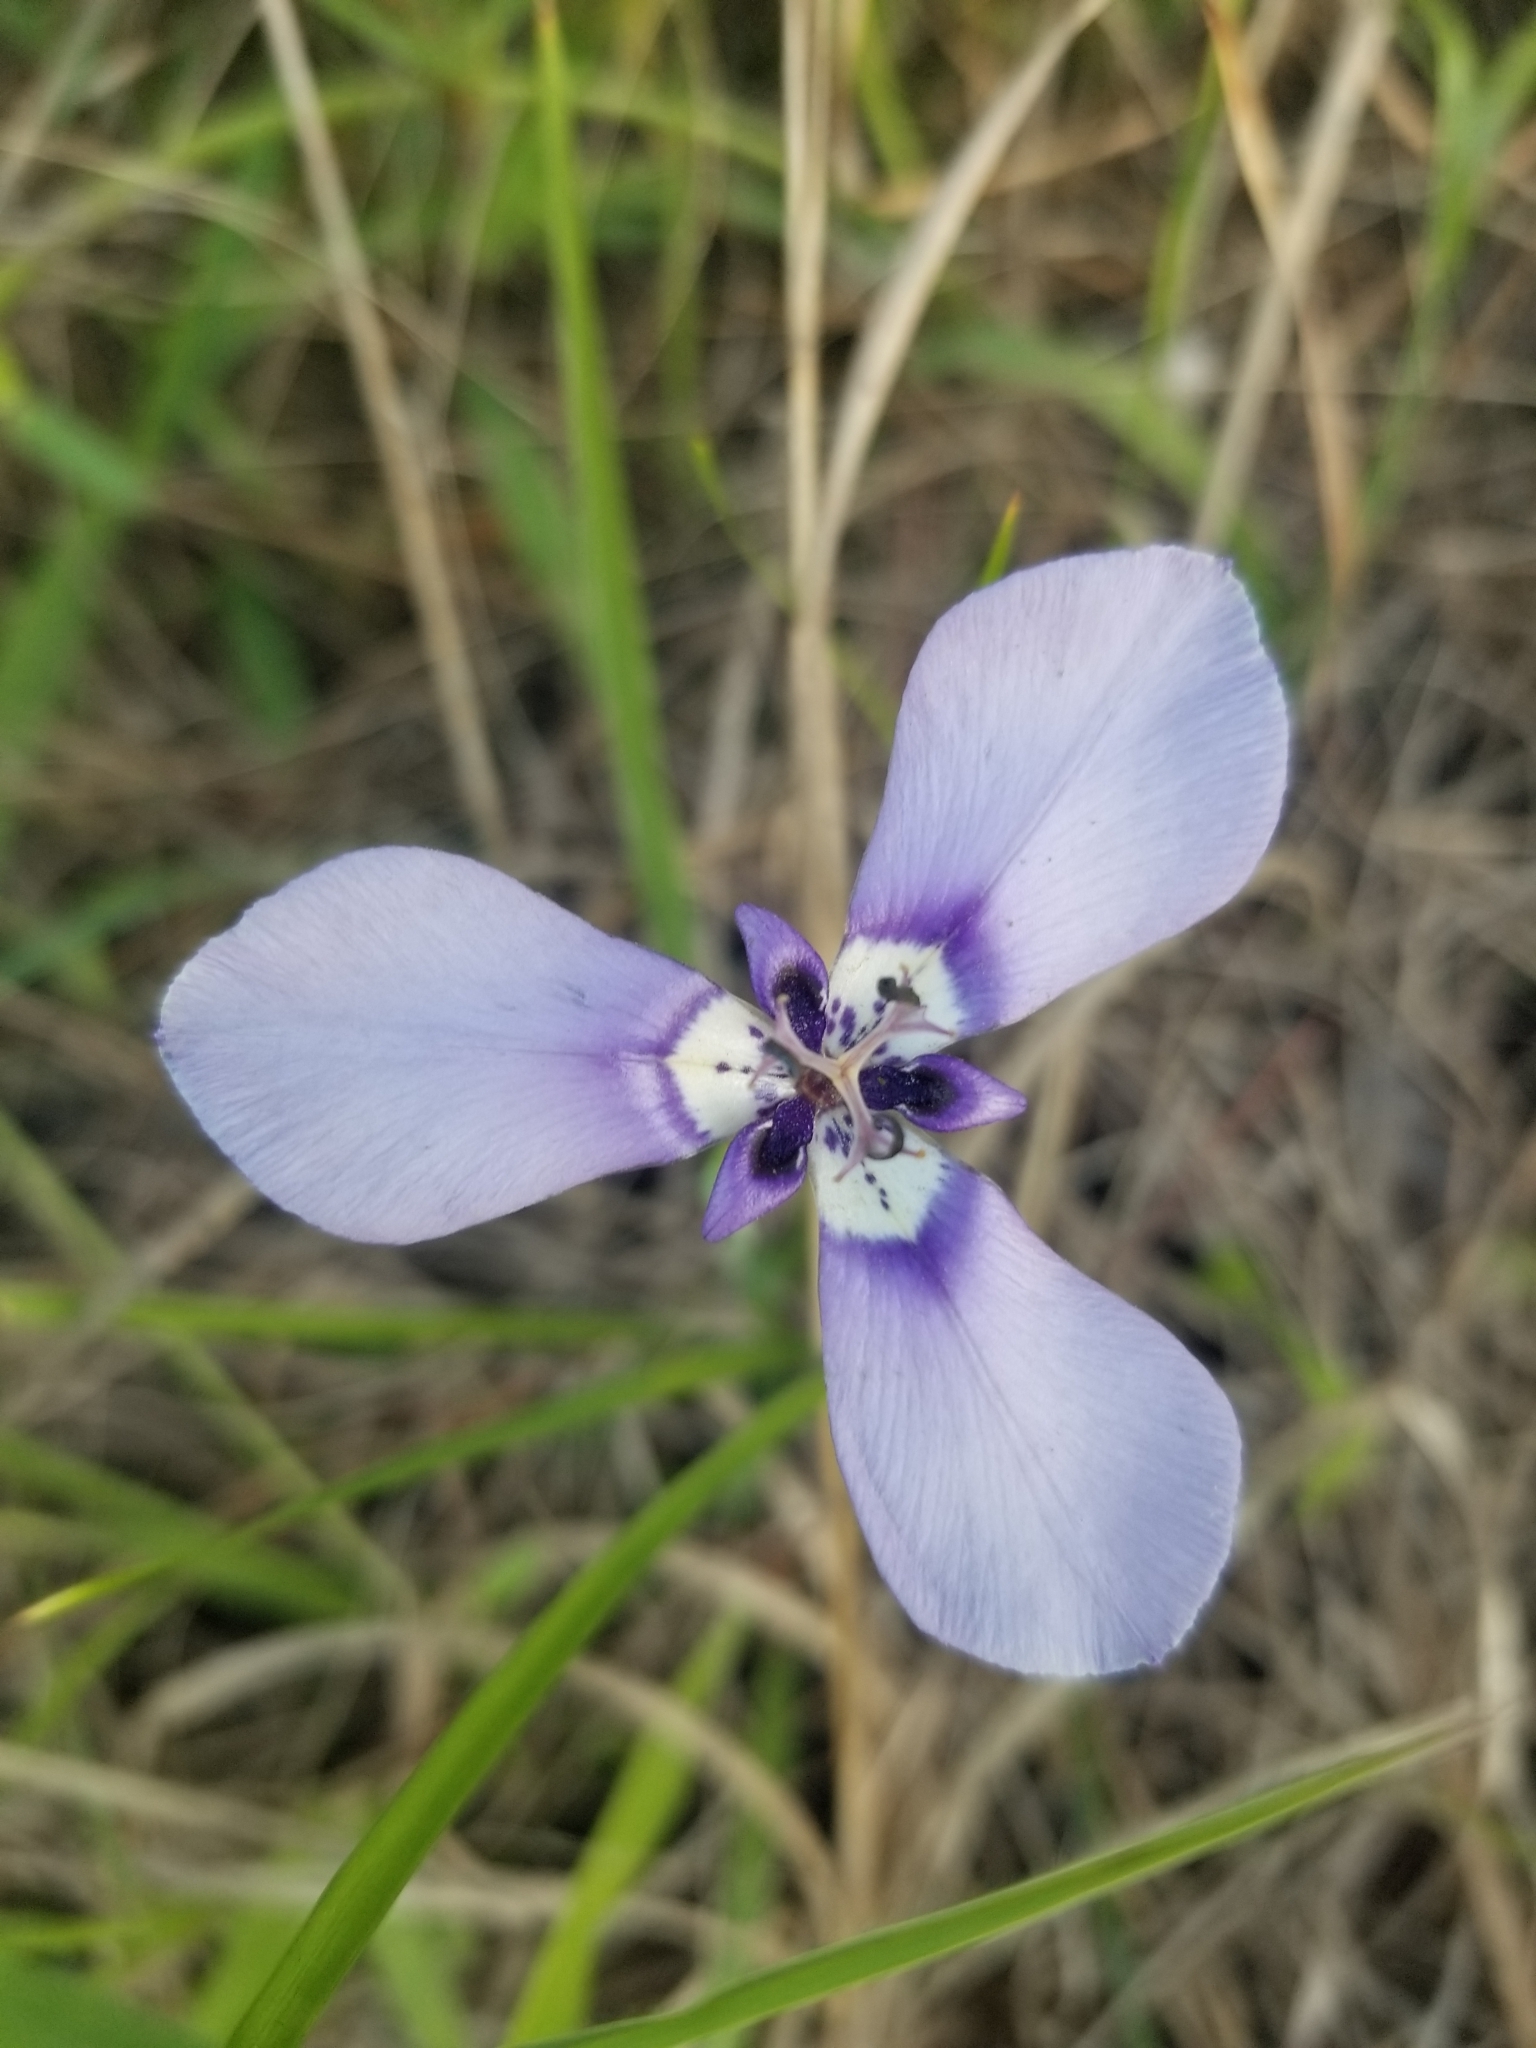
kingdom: Plantae
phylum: Tracheophyta
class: Liliopsida
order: Asparagales
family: Iridaceae
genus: Herbertia
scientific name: Herbertia lahue
